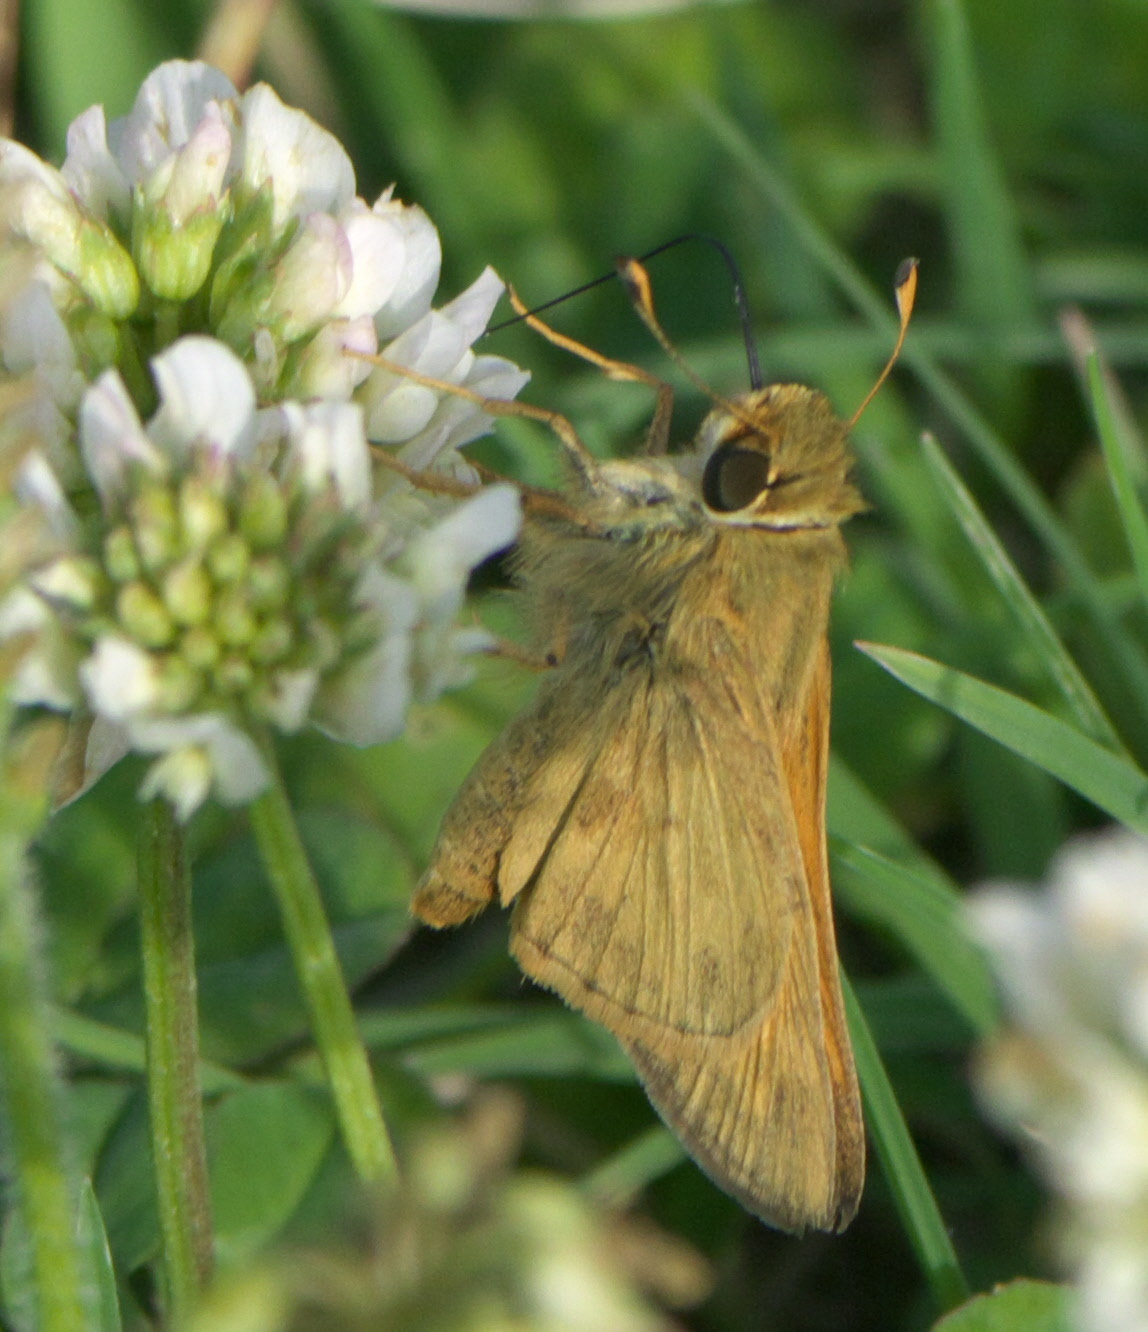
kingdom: Animalia
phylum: Arthropoda
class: Insecta
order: Lepidoptera
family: Hesperiidae
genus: Atalopedes
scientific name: Atalopedes
